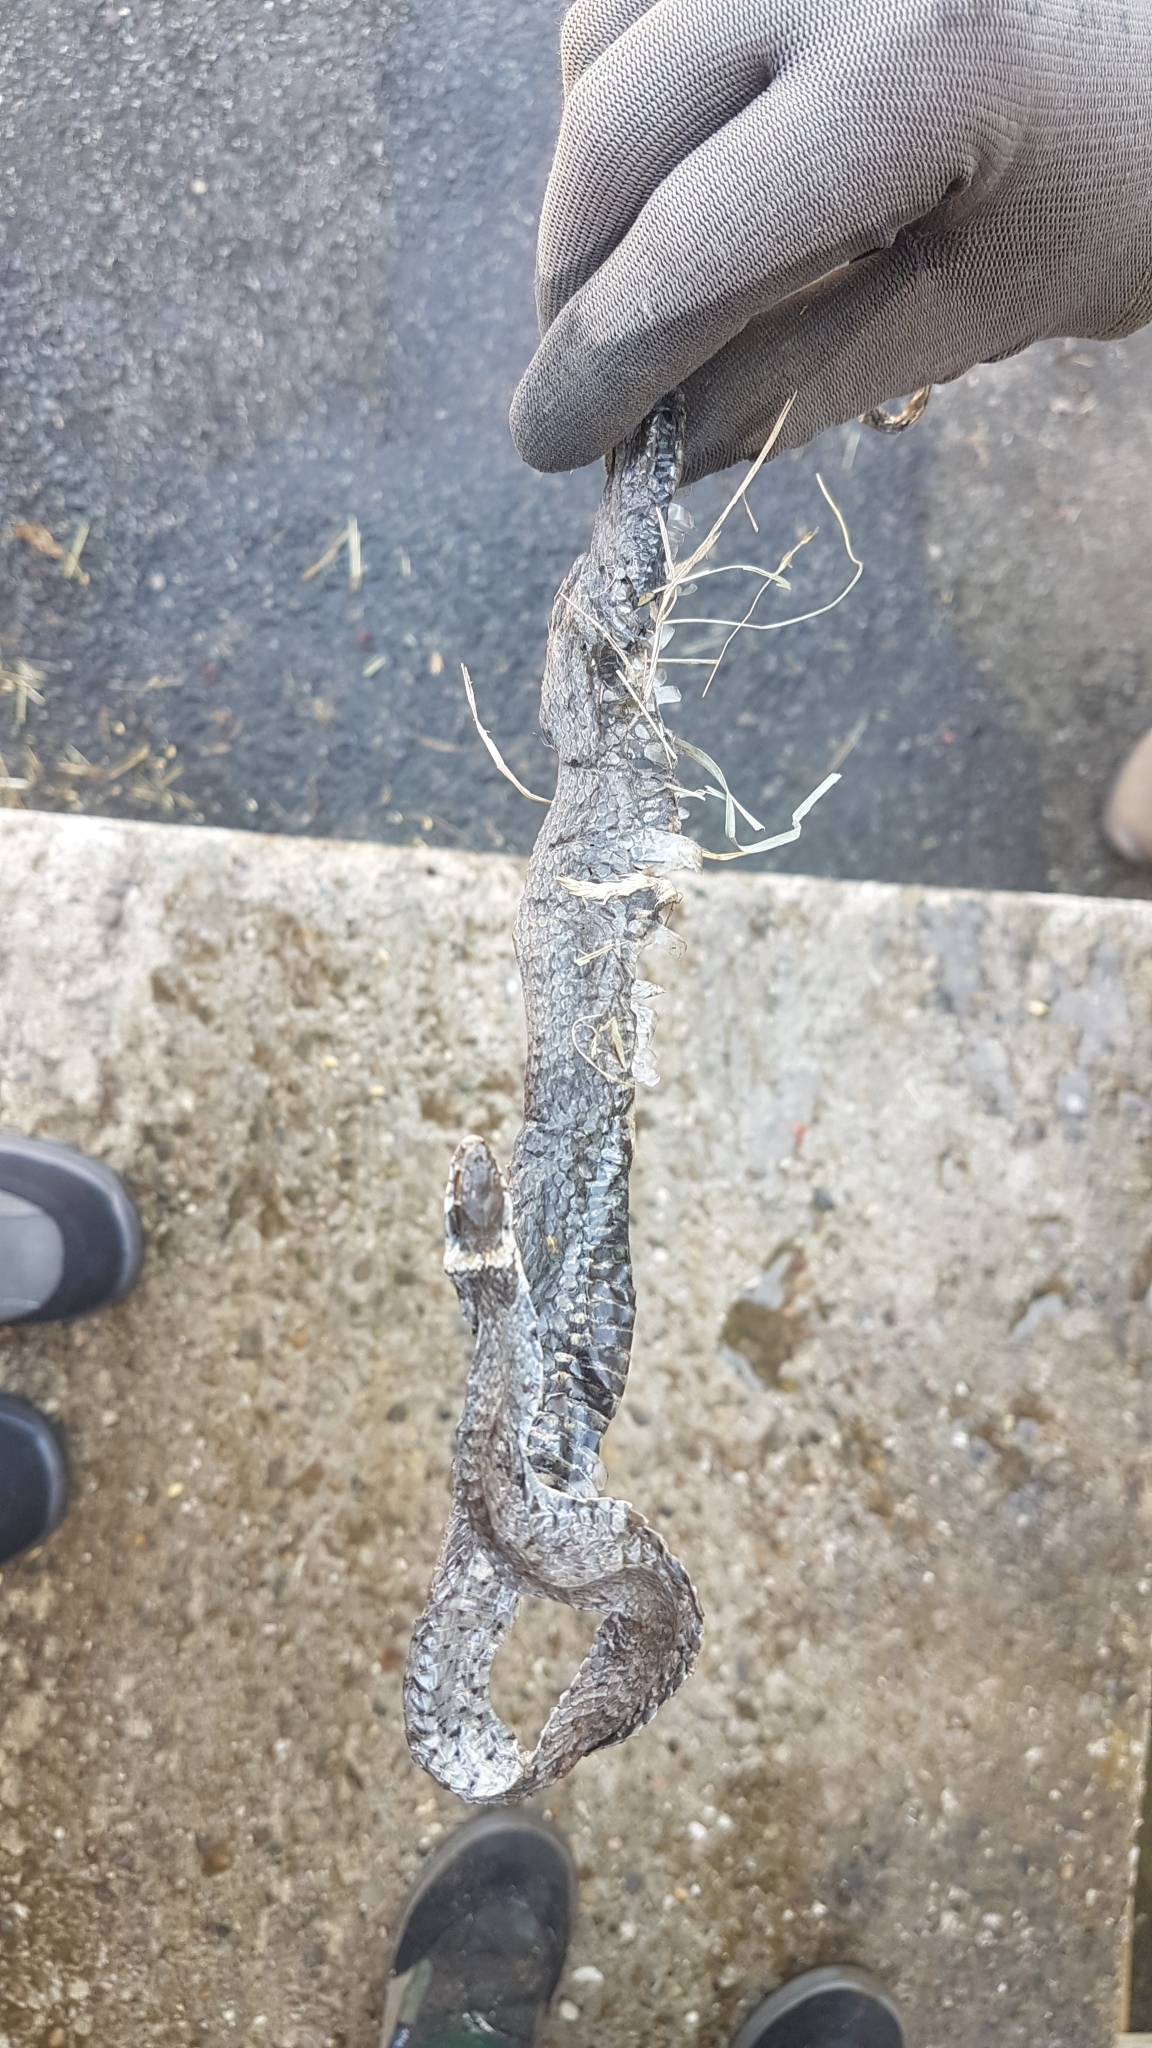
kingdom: Animalia
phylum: Chordata
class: Squamata
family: Colubridae
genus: Natrix
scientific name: Natrix helvetica
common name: Banded grass snake
